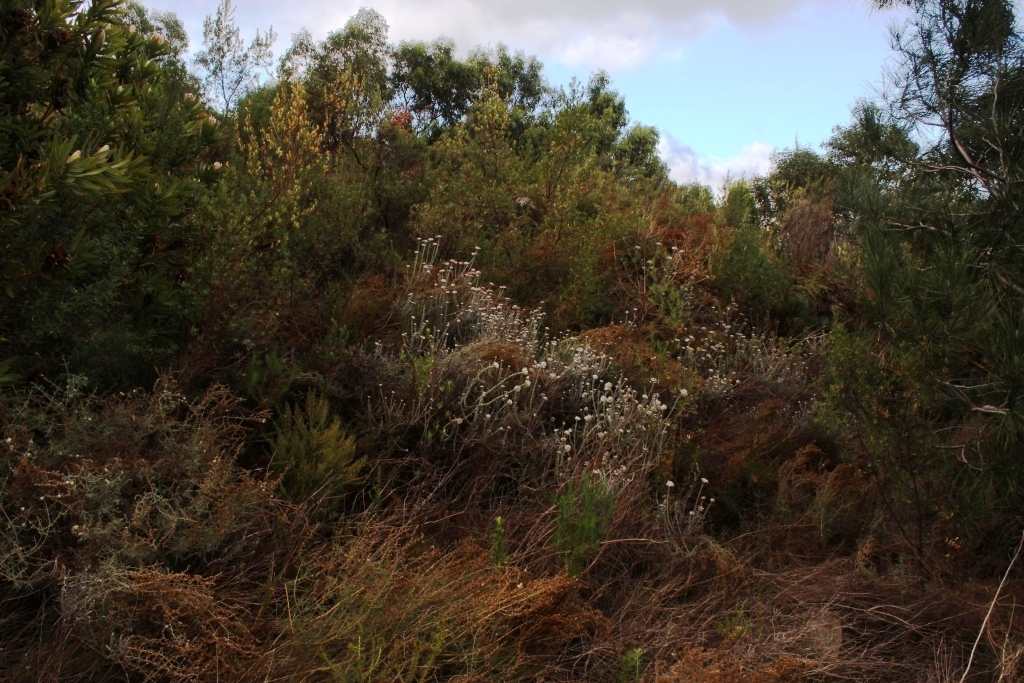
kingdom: Plantae
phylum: Tracheophyta
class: Magnoliopsida
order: Asterales
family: Asteraceae
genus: Metalasia
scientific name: Metalasia densa
